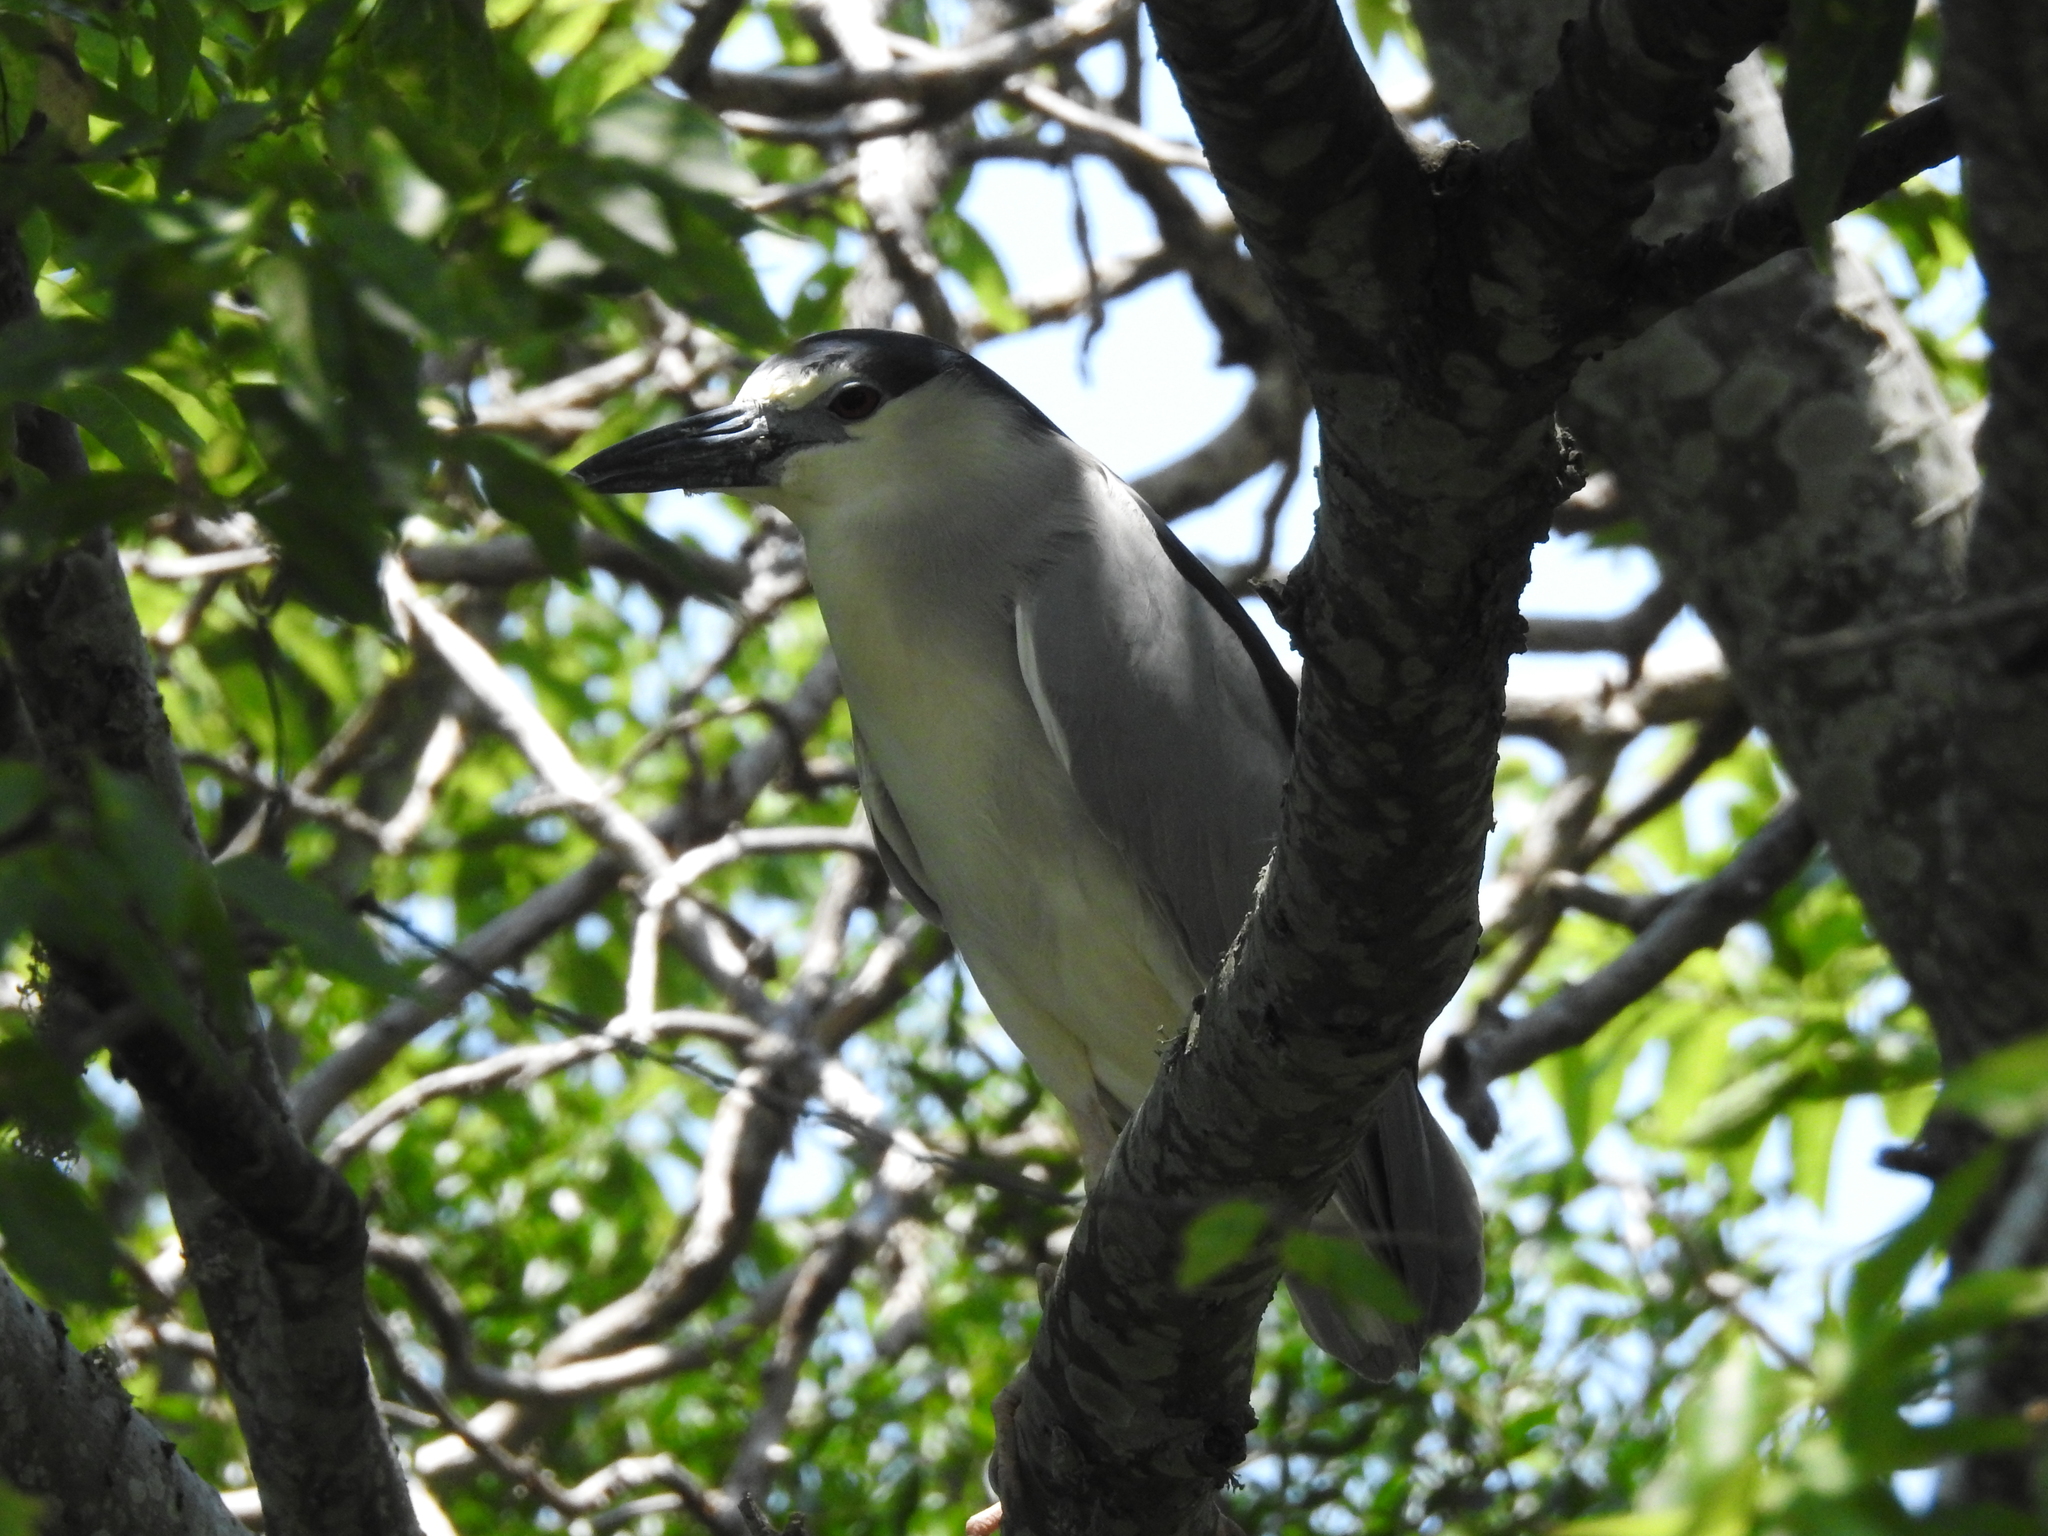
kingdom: Animalia
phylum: Chordata
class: Aves
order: Pelecaniformes
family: Ardeidae
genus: Nycticorax
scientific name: Nycticorax nycticorax
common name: Black-crowned night heron
